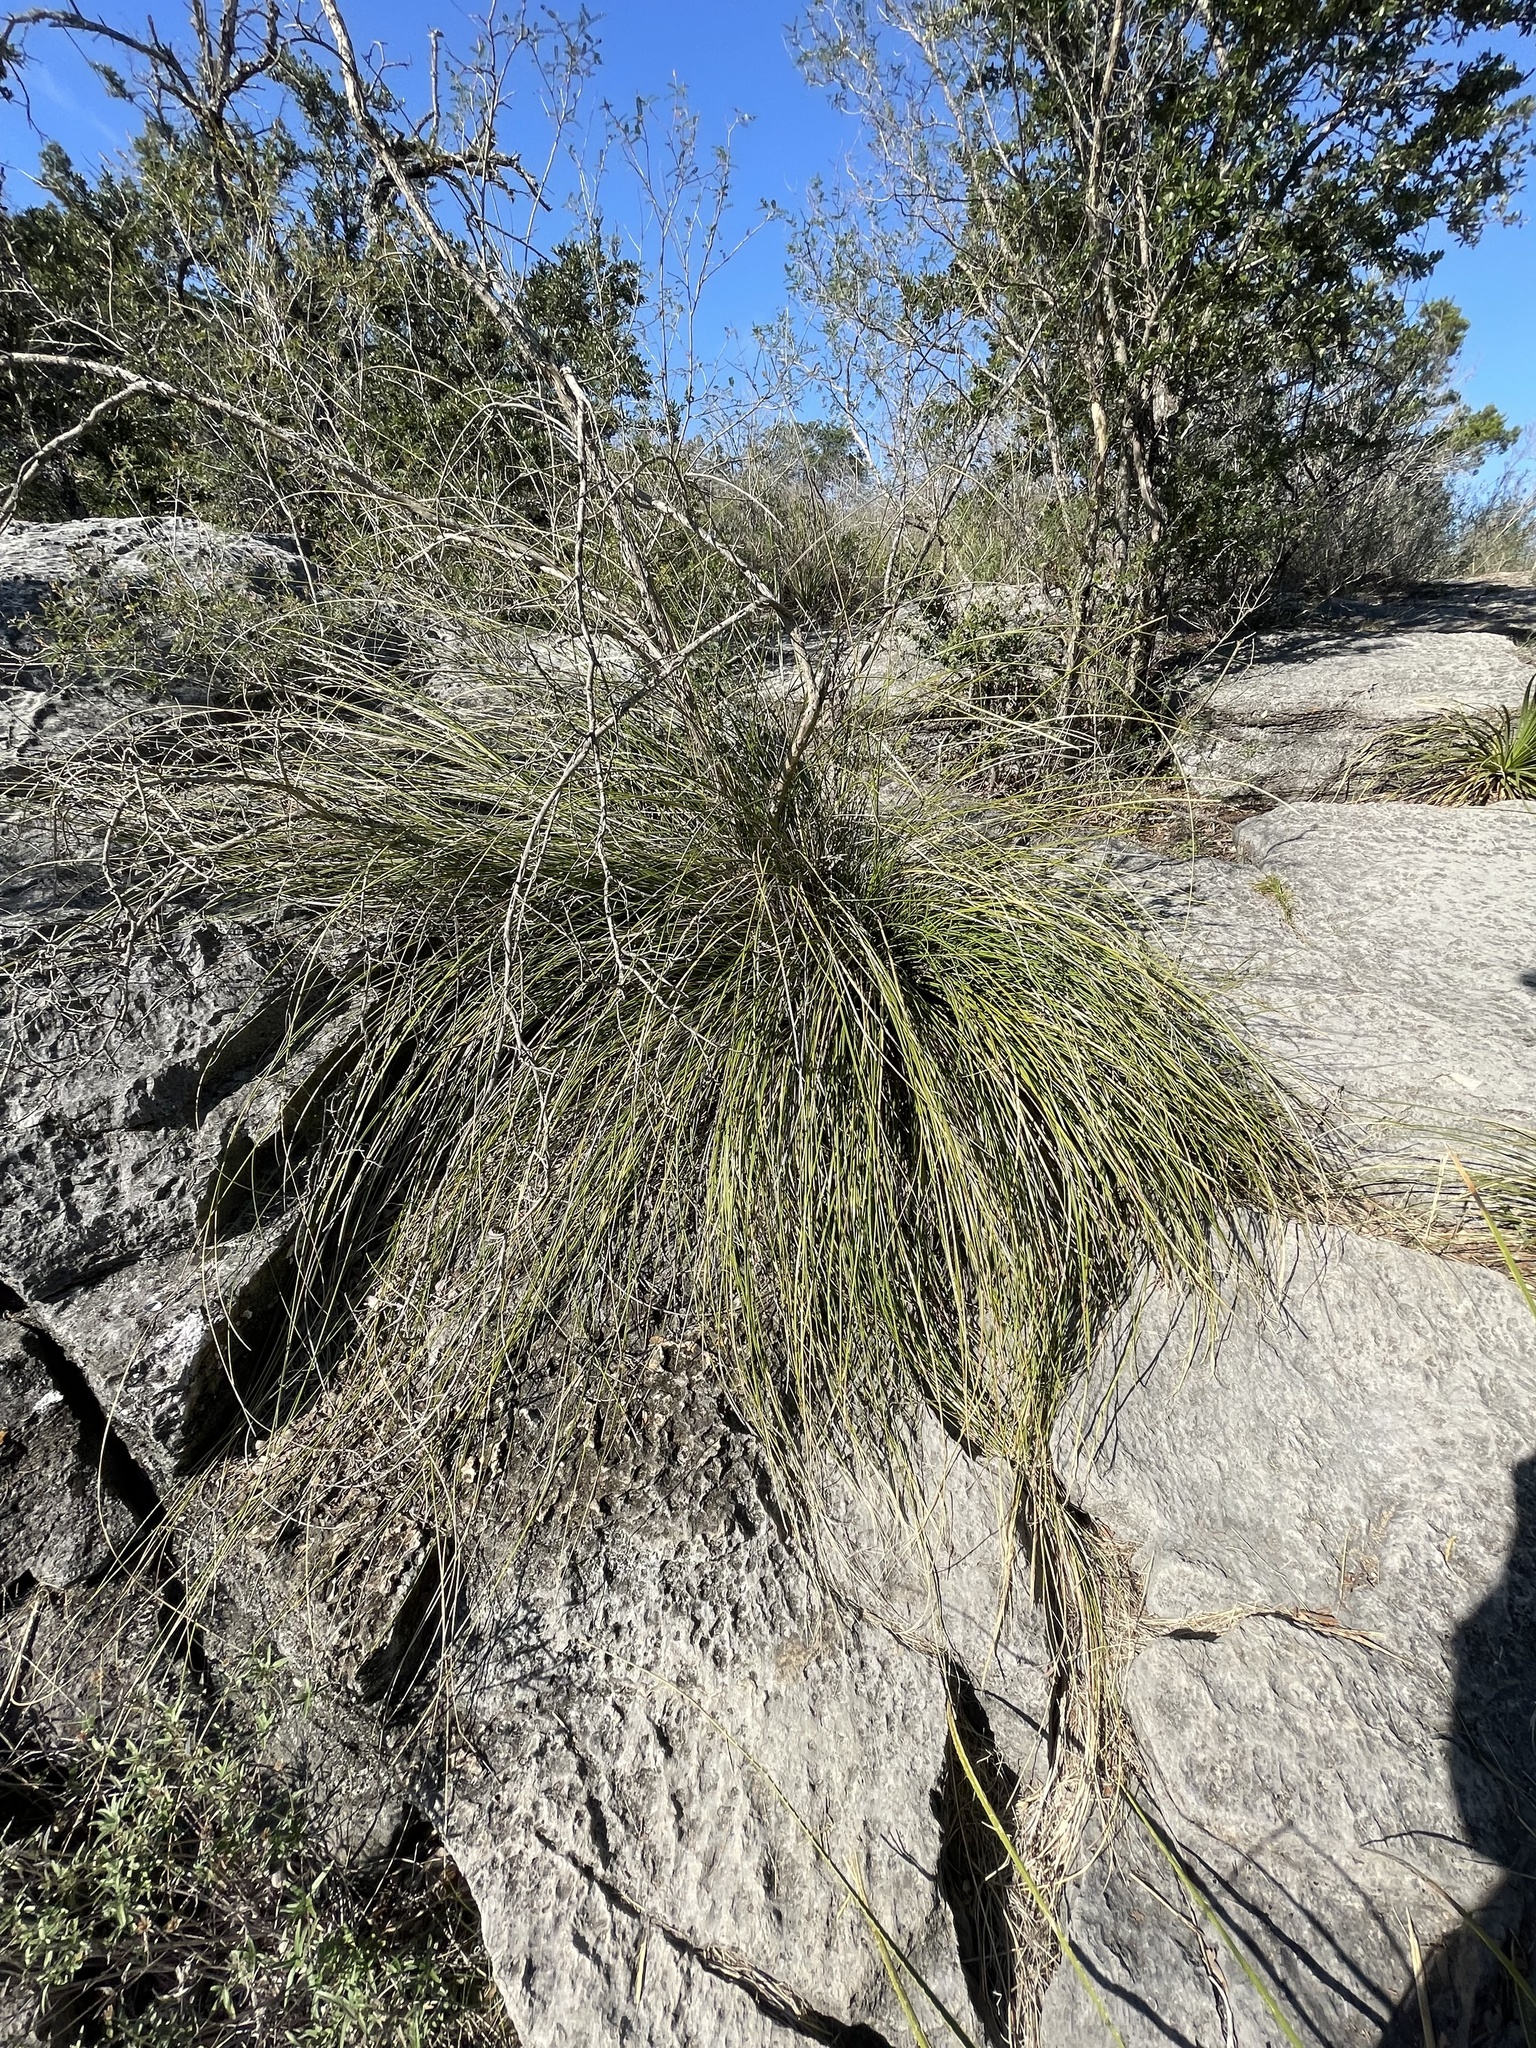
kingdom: Plantae
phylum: Tracheophyta
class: Liliopsida
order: Asparagales
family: Asparagaceae
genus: Nolina
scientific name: Nolina texana
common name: Texas sacahuiste
